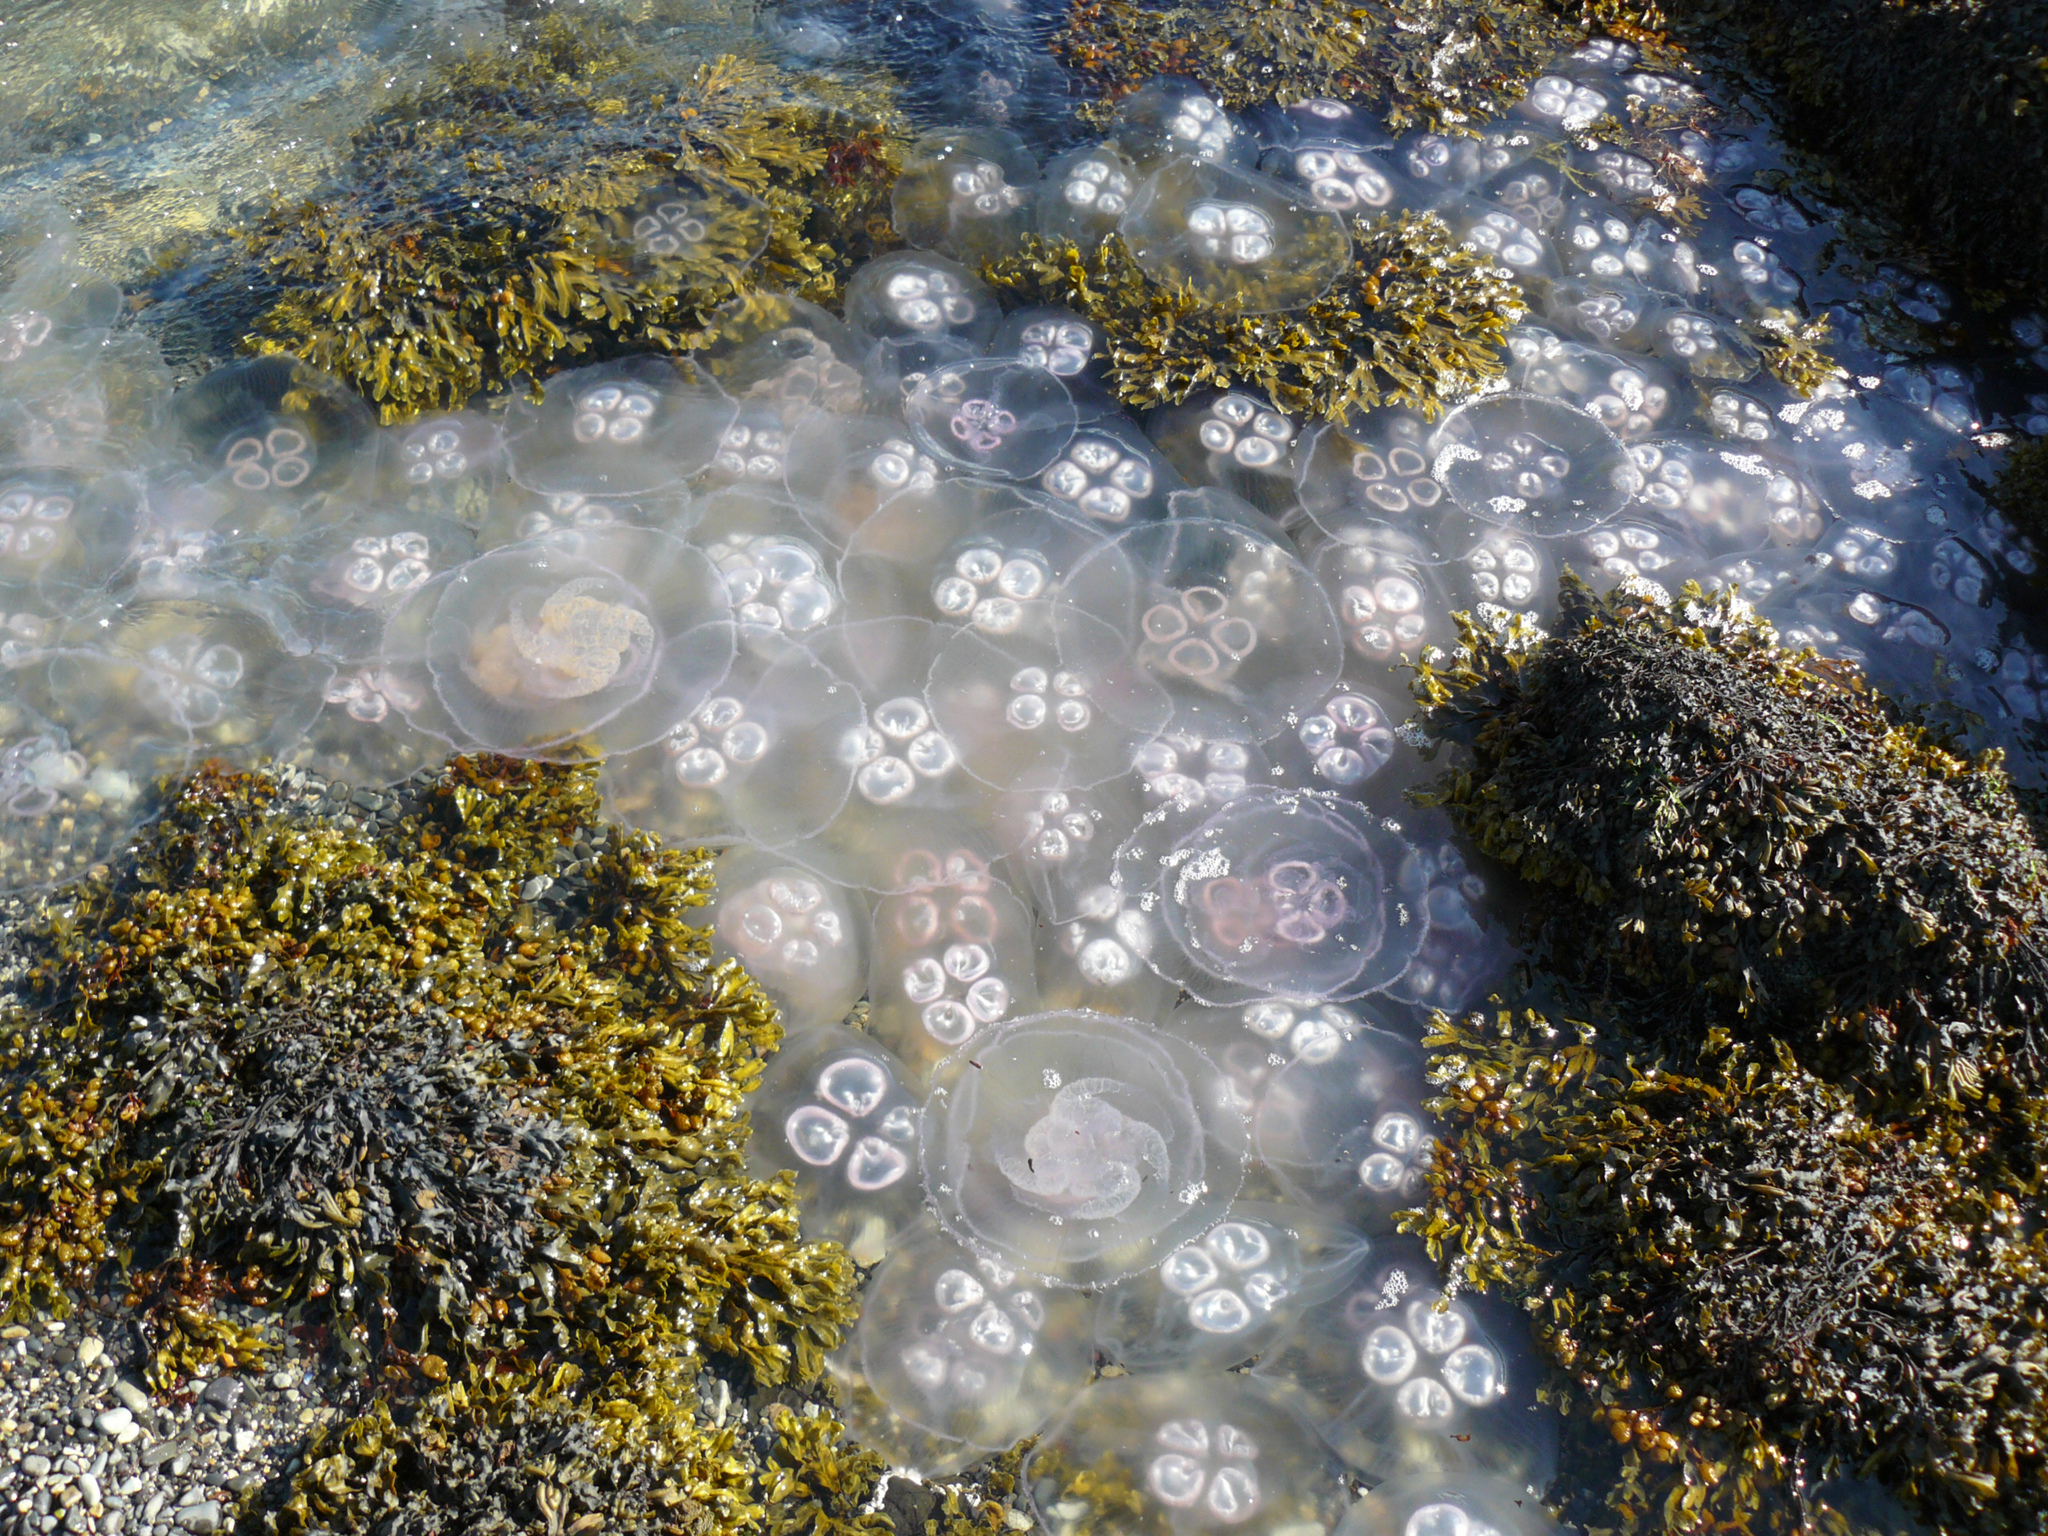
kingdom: Animalia
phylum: Cnidaria
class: Scyphozoa
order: Semaeostomeae
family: Ulmaridae
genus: Aurelia
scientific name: Aurelia aurita
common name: Moon jellyfish
